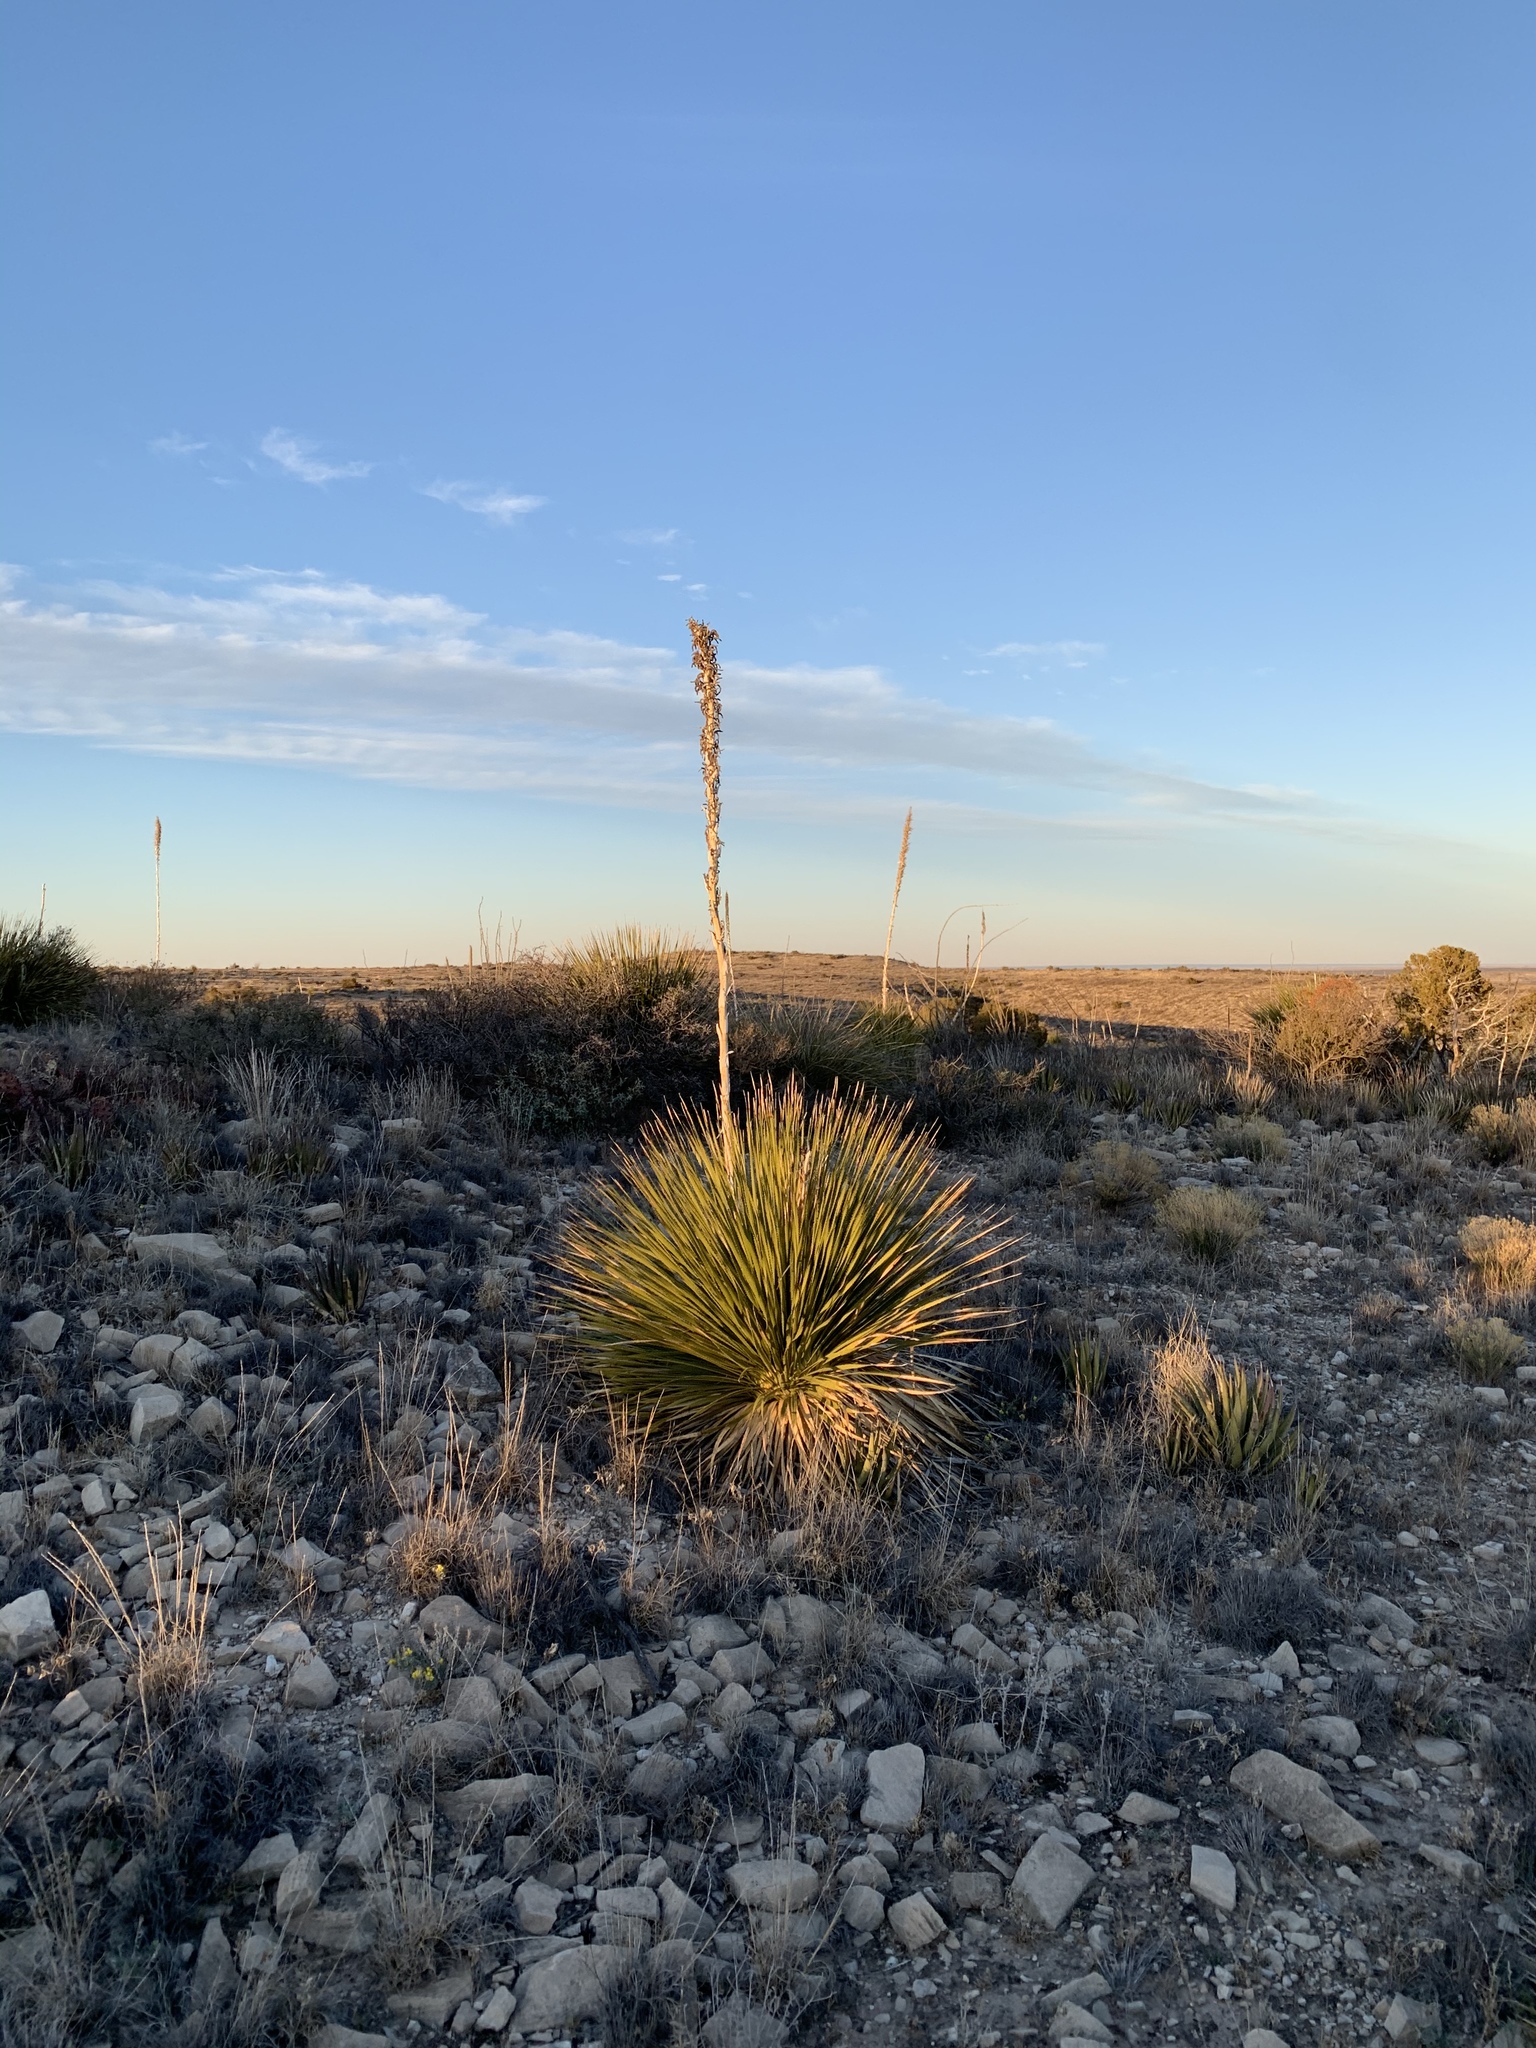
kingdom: Plantae
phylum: Tracheophyta
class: Liliopsida
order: Asparagales
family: Asparagaceae
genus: Dasylirion
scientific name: Dasylirion leiophyllum
